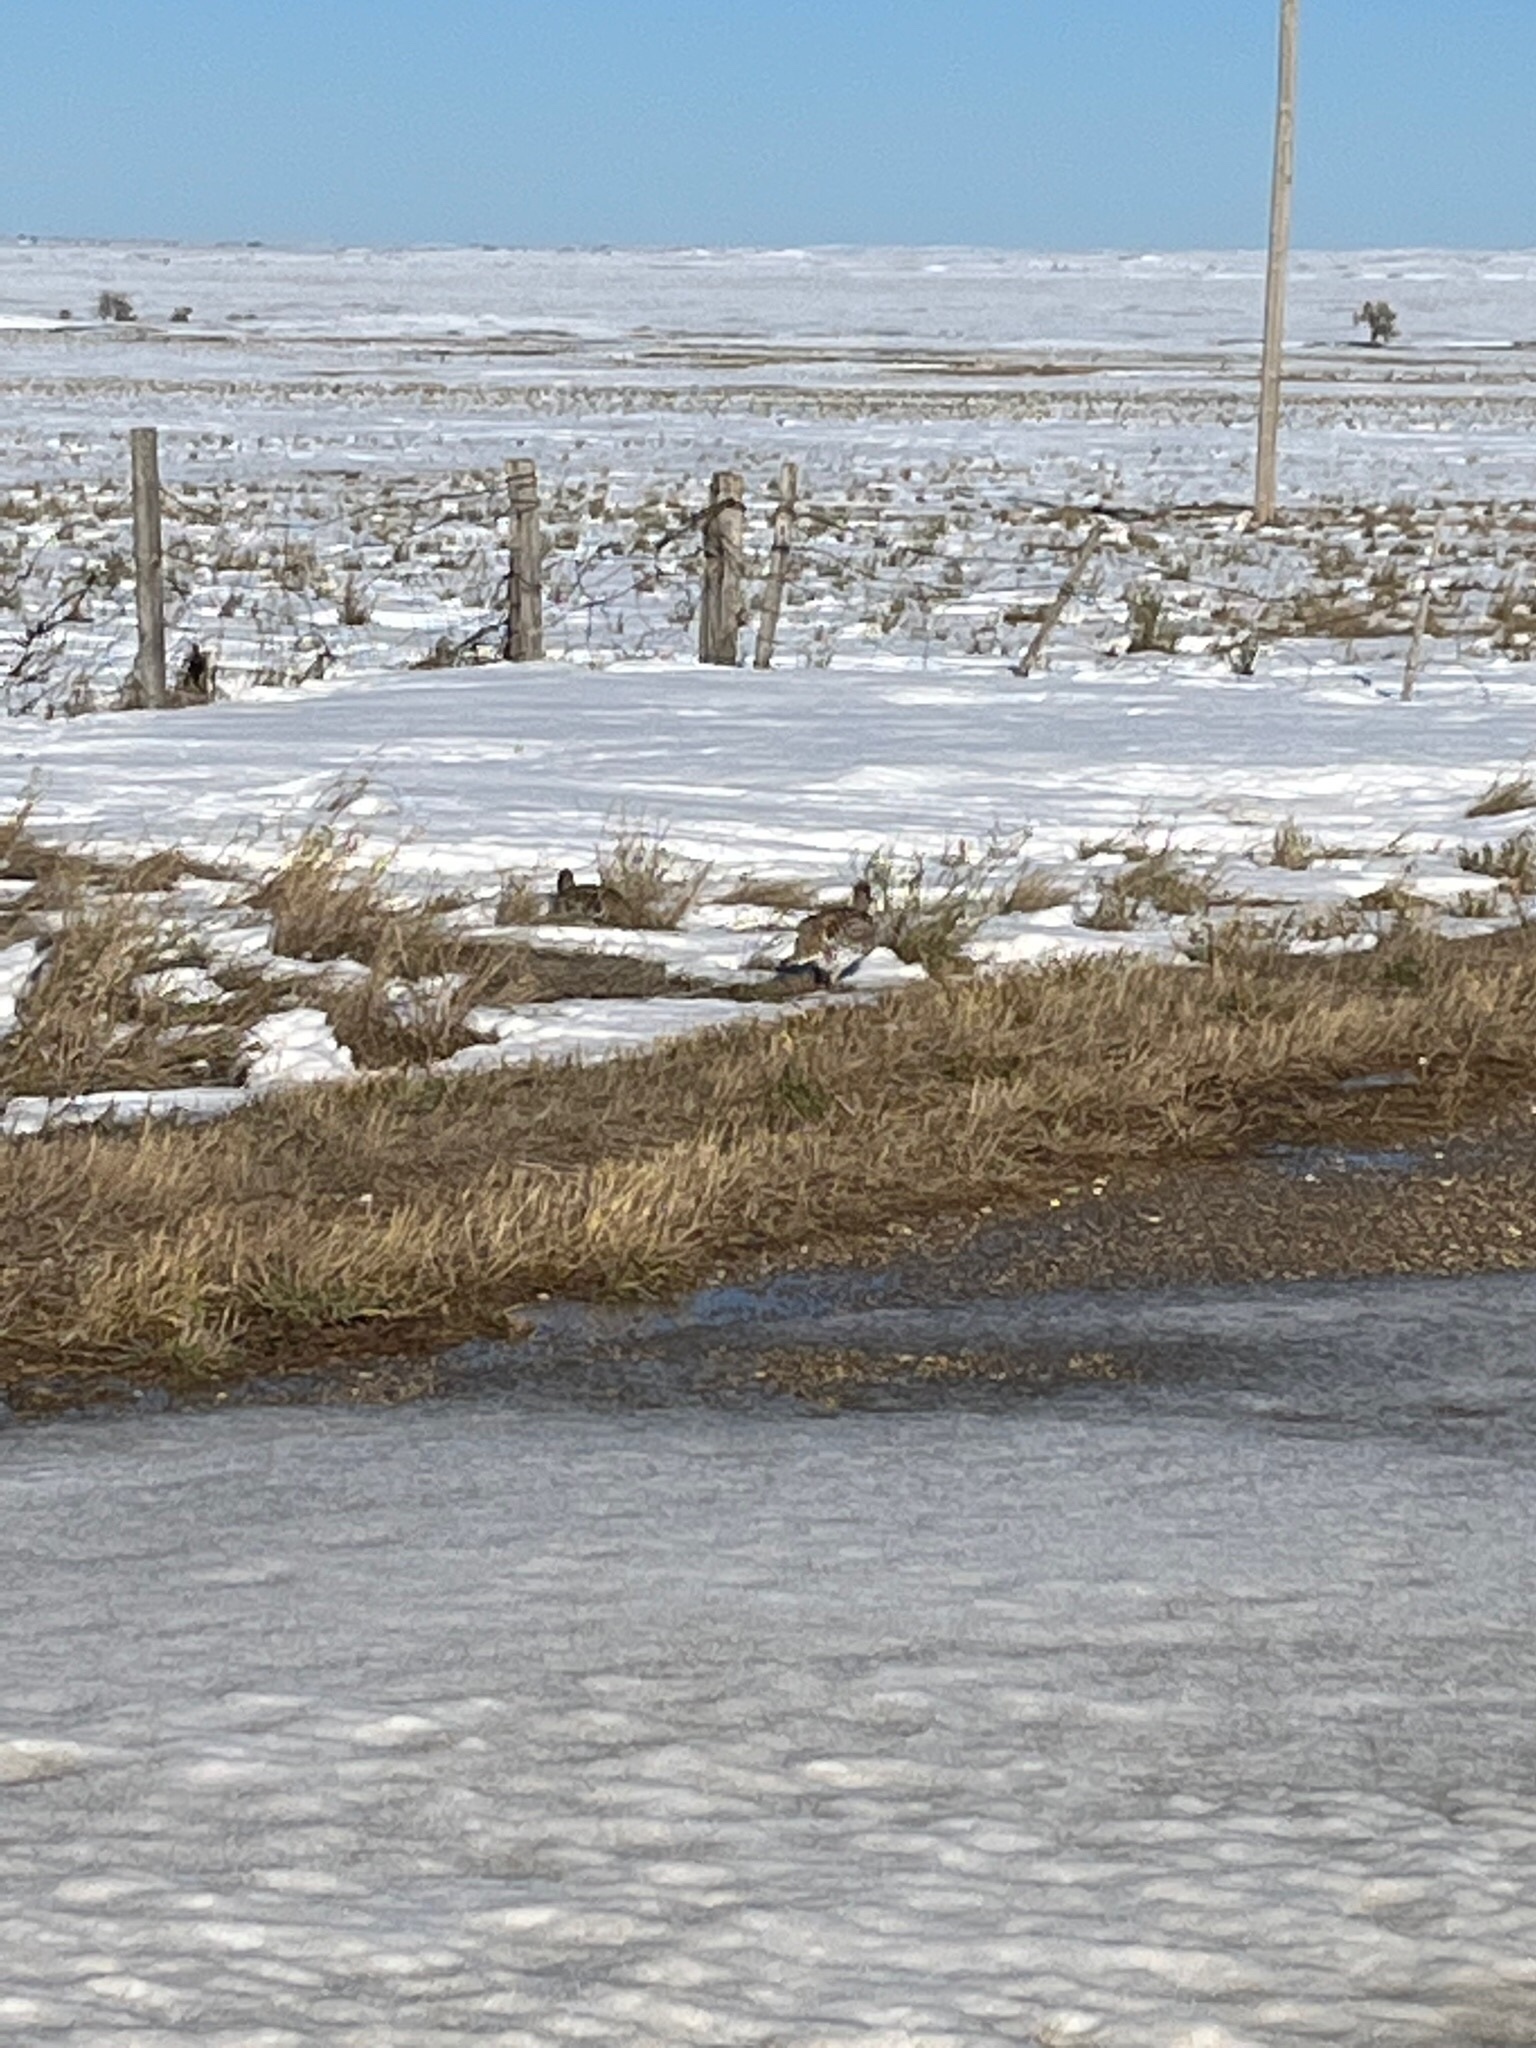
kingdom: Animalia
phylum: Chordata
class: Aves
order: Galliformes
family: Phasianidae
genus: Tympanuchus
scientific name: Tympanuchus phasianellus
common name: Sharp-tailed grouse
